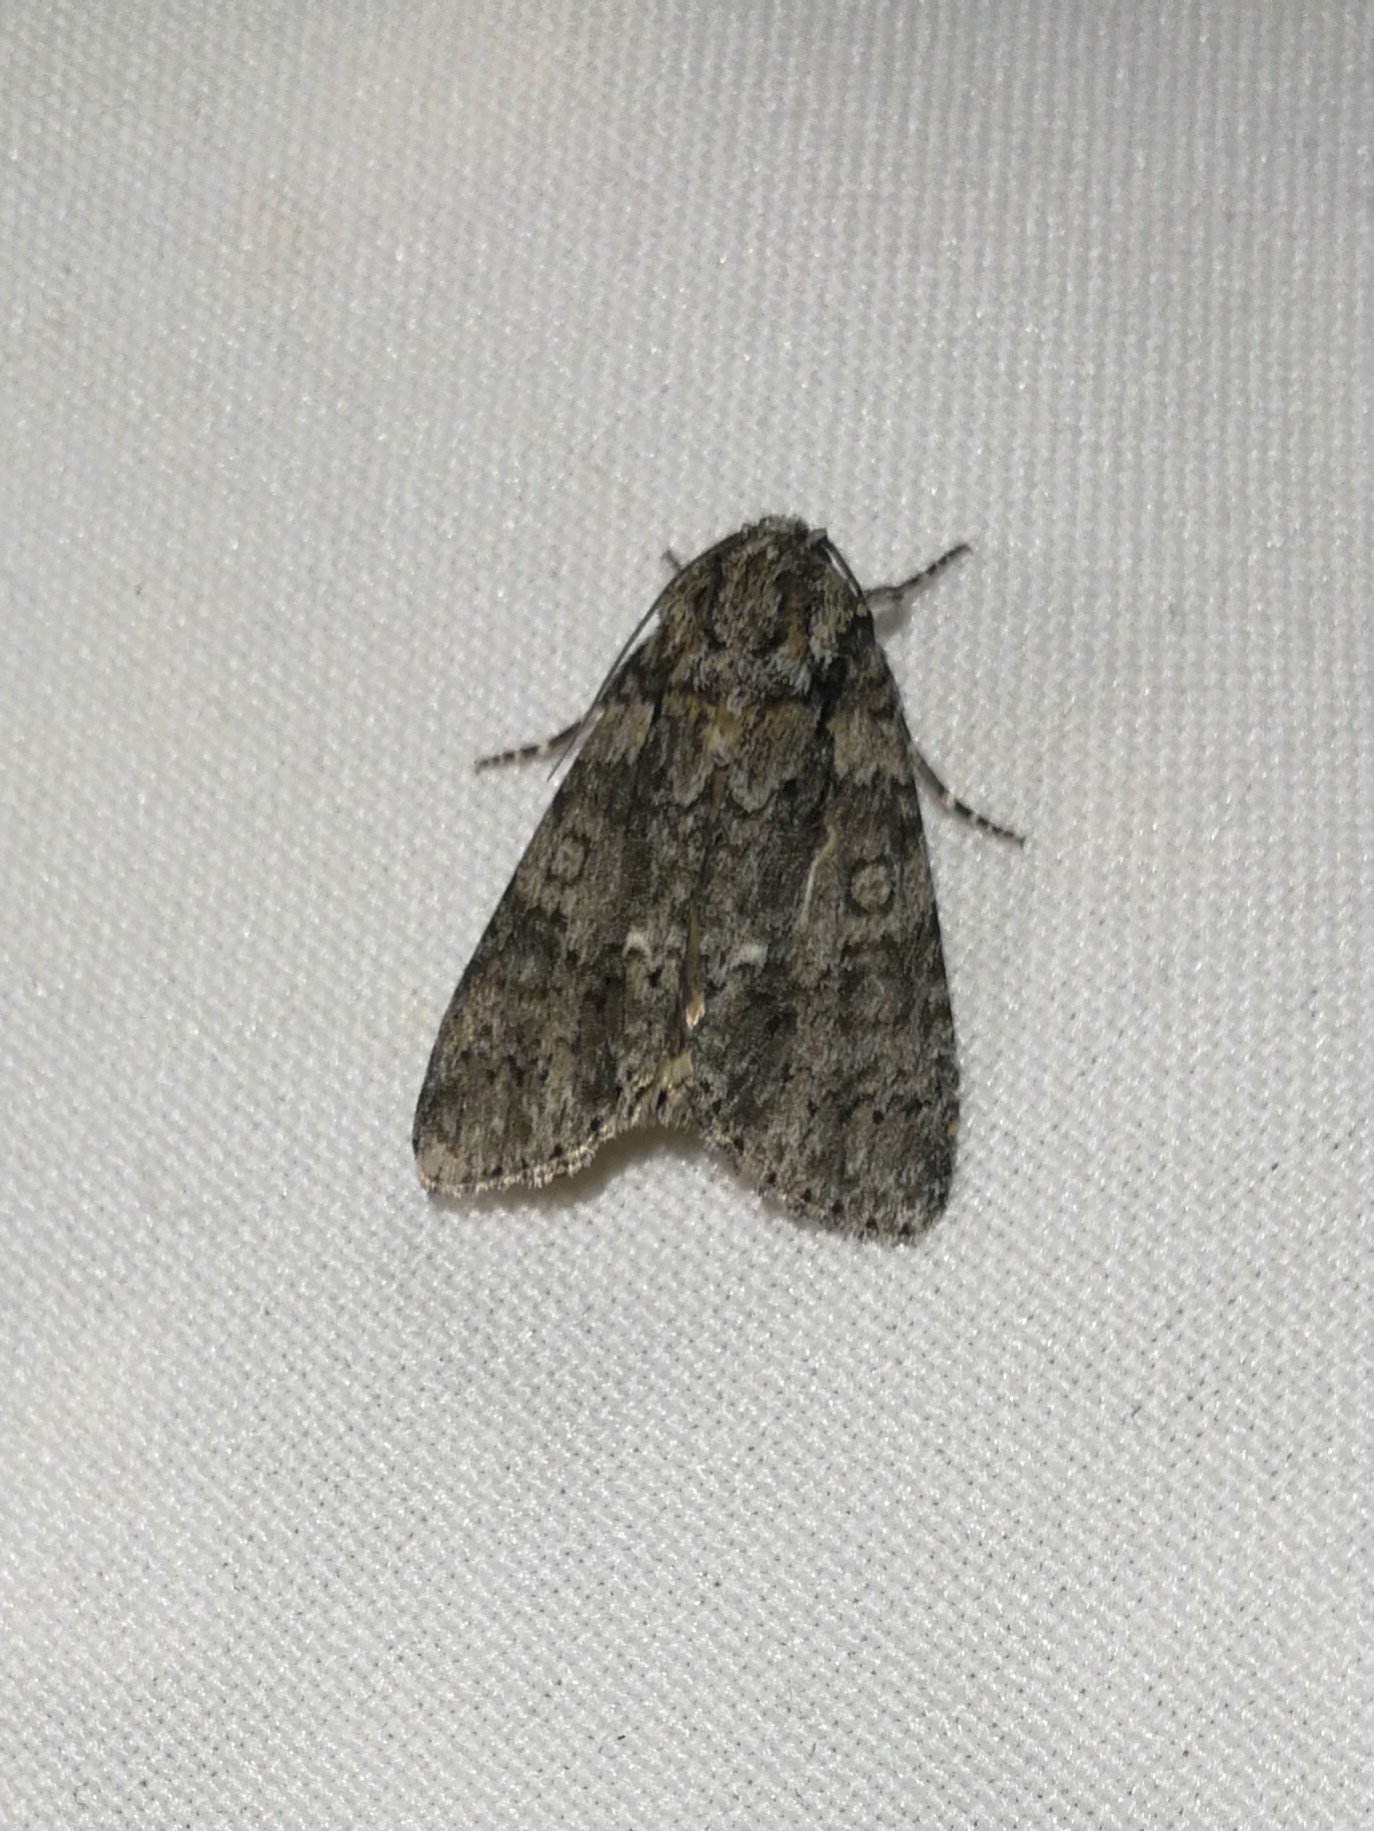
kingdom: Animalia
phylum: Arthropoda
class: Insecta
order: Lepidoptera
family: Noctuidae
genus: Acronicta
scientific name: Acronicta rumicis
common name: Knot grass
